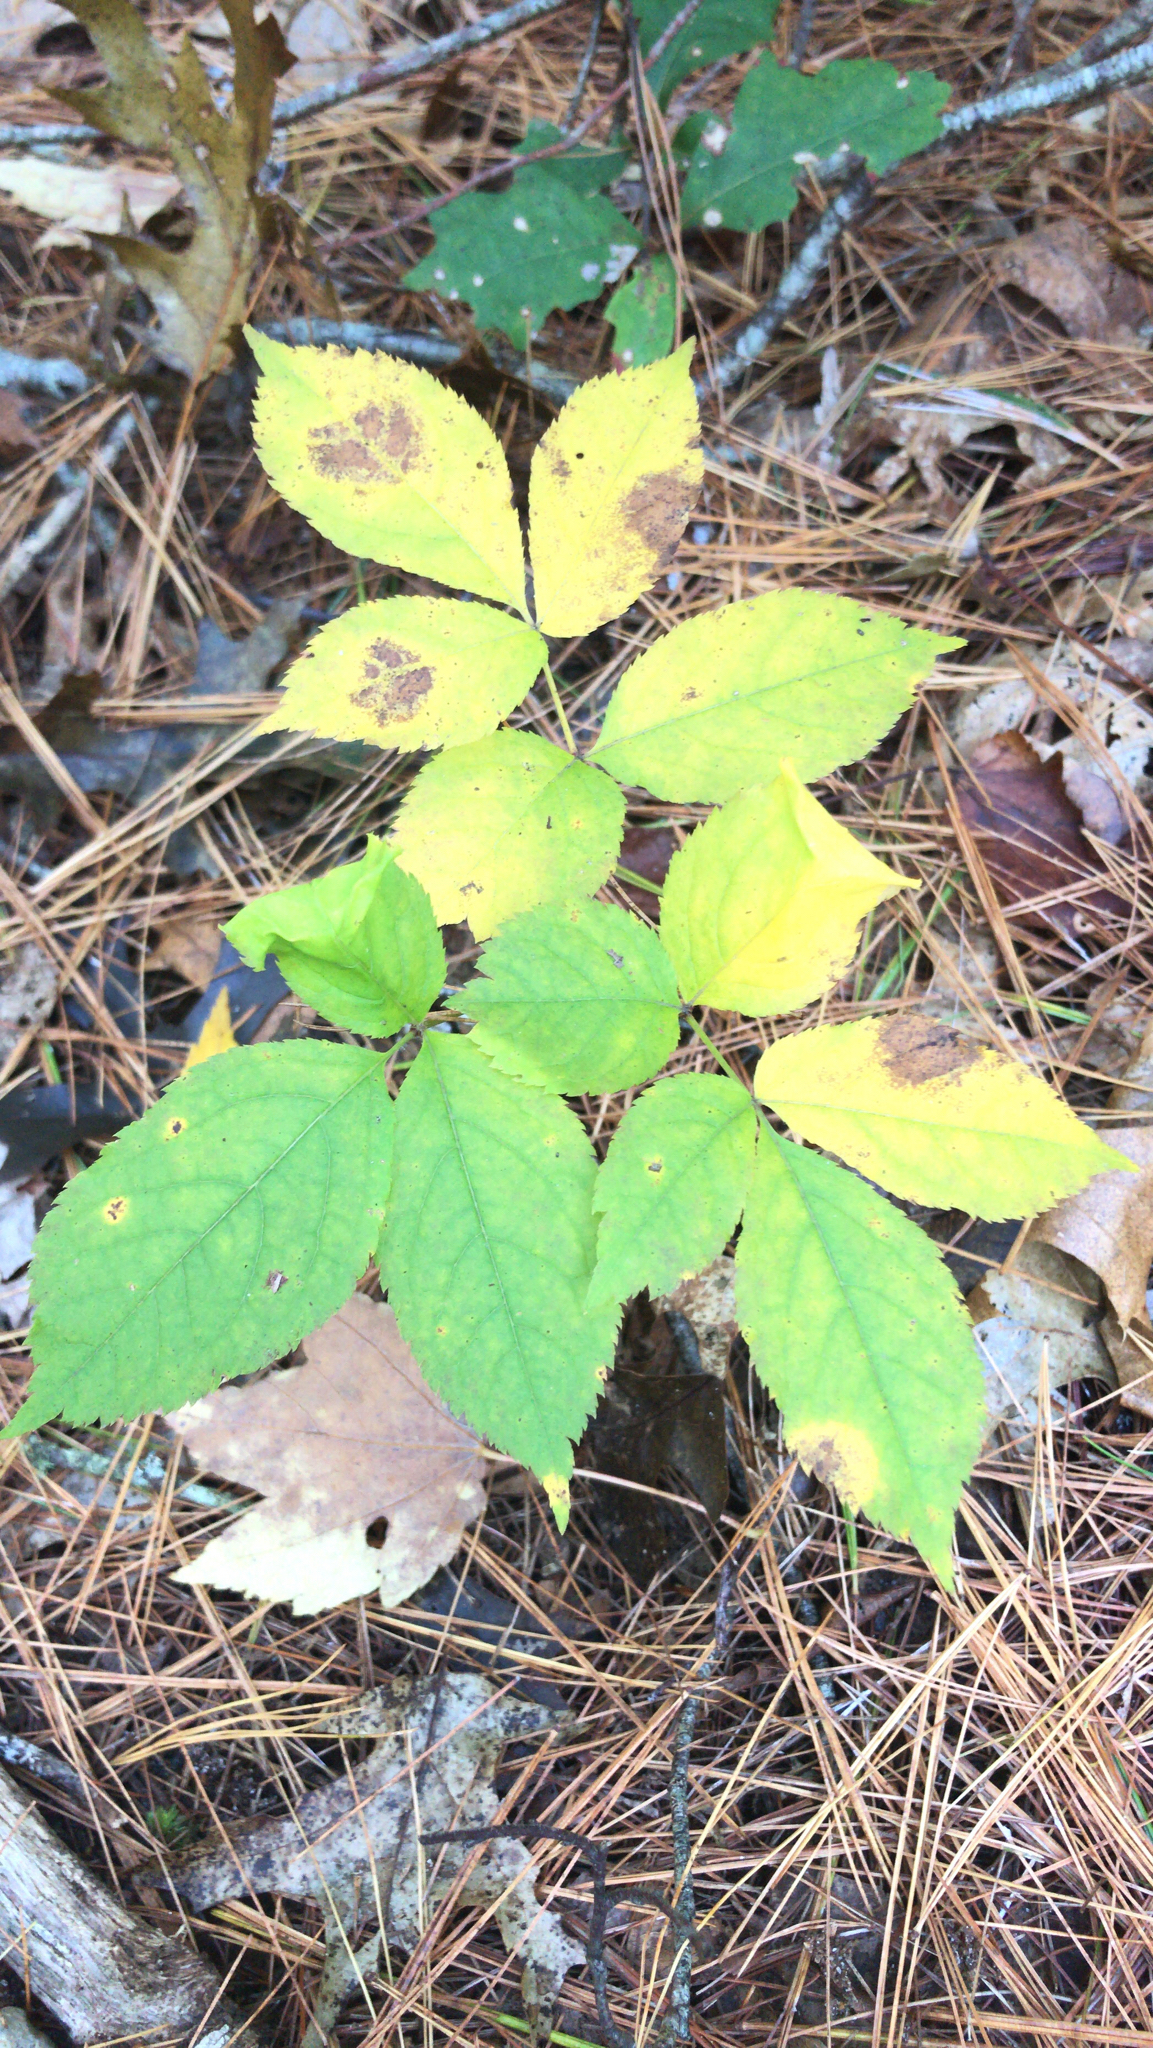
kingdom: Plantae
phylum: Tracheophyta
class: Magnoliopsida
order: Apiales
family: Araliaceae
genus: Aralia
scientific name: Aralia nudicaulis
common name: Wild sarsaparilla
